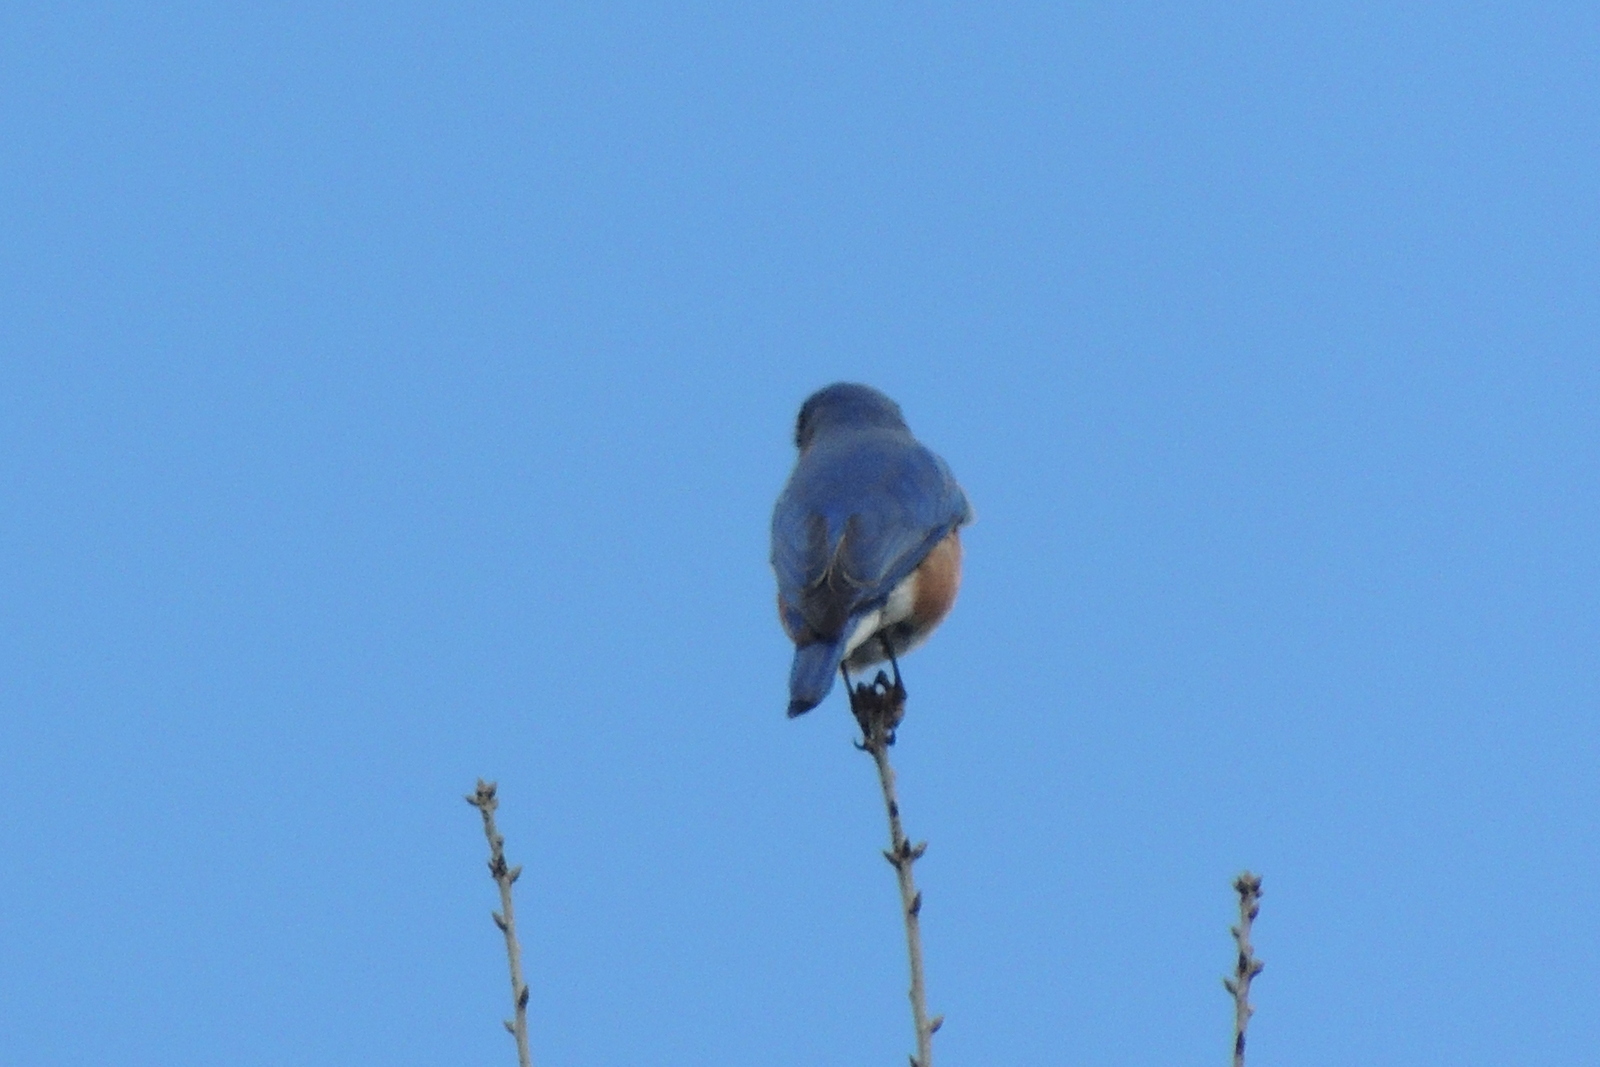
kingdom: Animalia
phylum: Chordata
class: Aves
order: Passeriformes
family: Turdidae
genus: Sialia
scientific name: Sialia sialis
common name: Eastern bluebird
